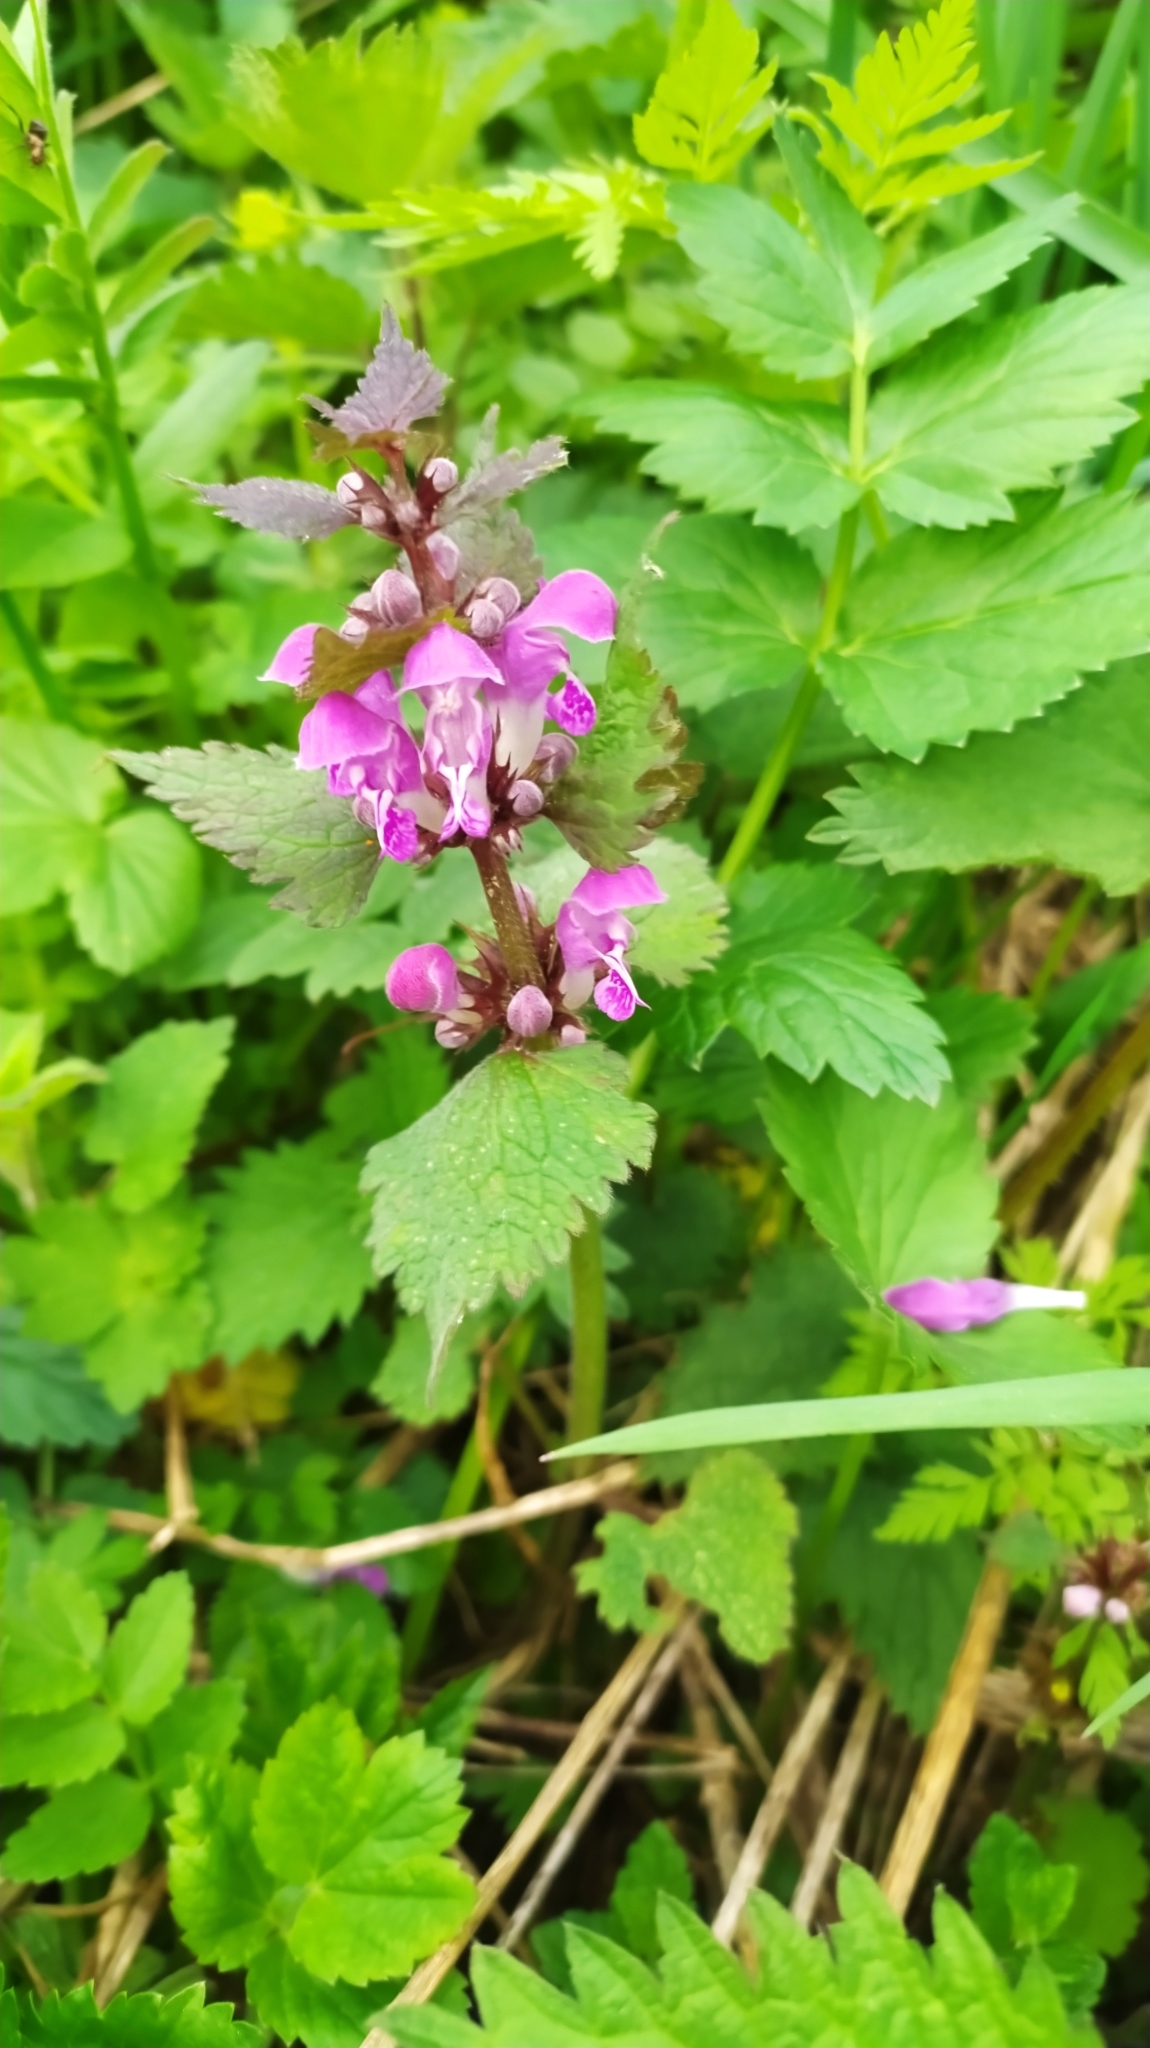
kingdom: Plantae
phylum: Tracheophyta
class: Magnoliopsida
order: Lamiales
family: Lamiaceae
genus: Lamium
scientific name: Lamium maculatum
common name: Spotted dead-nettle
